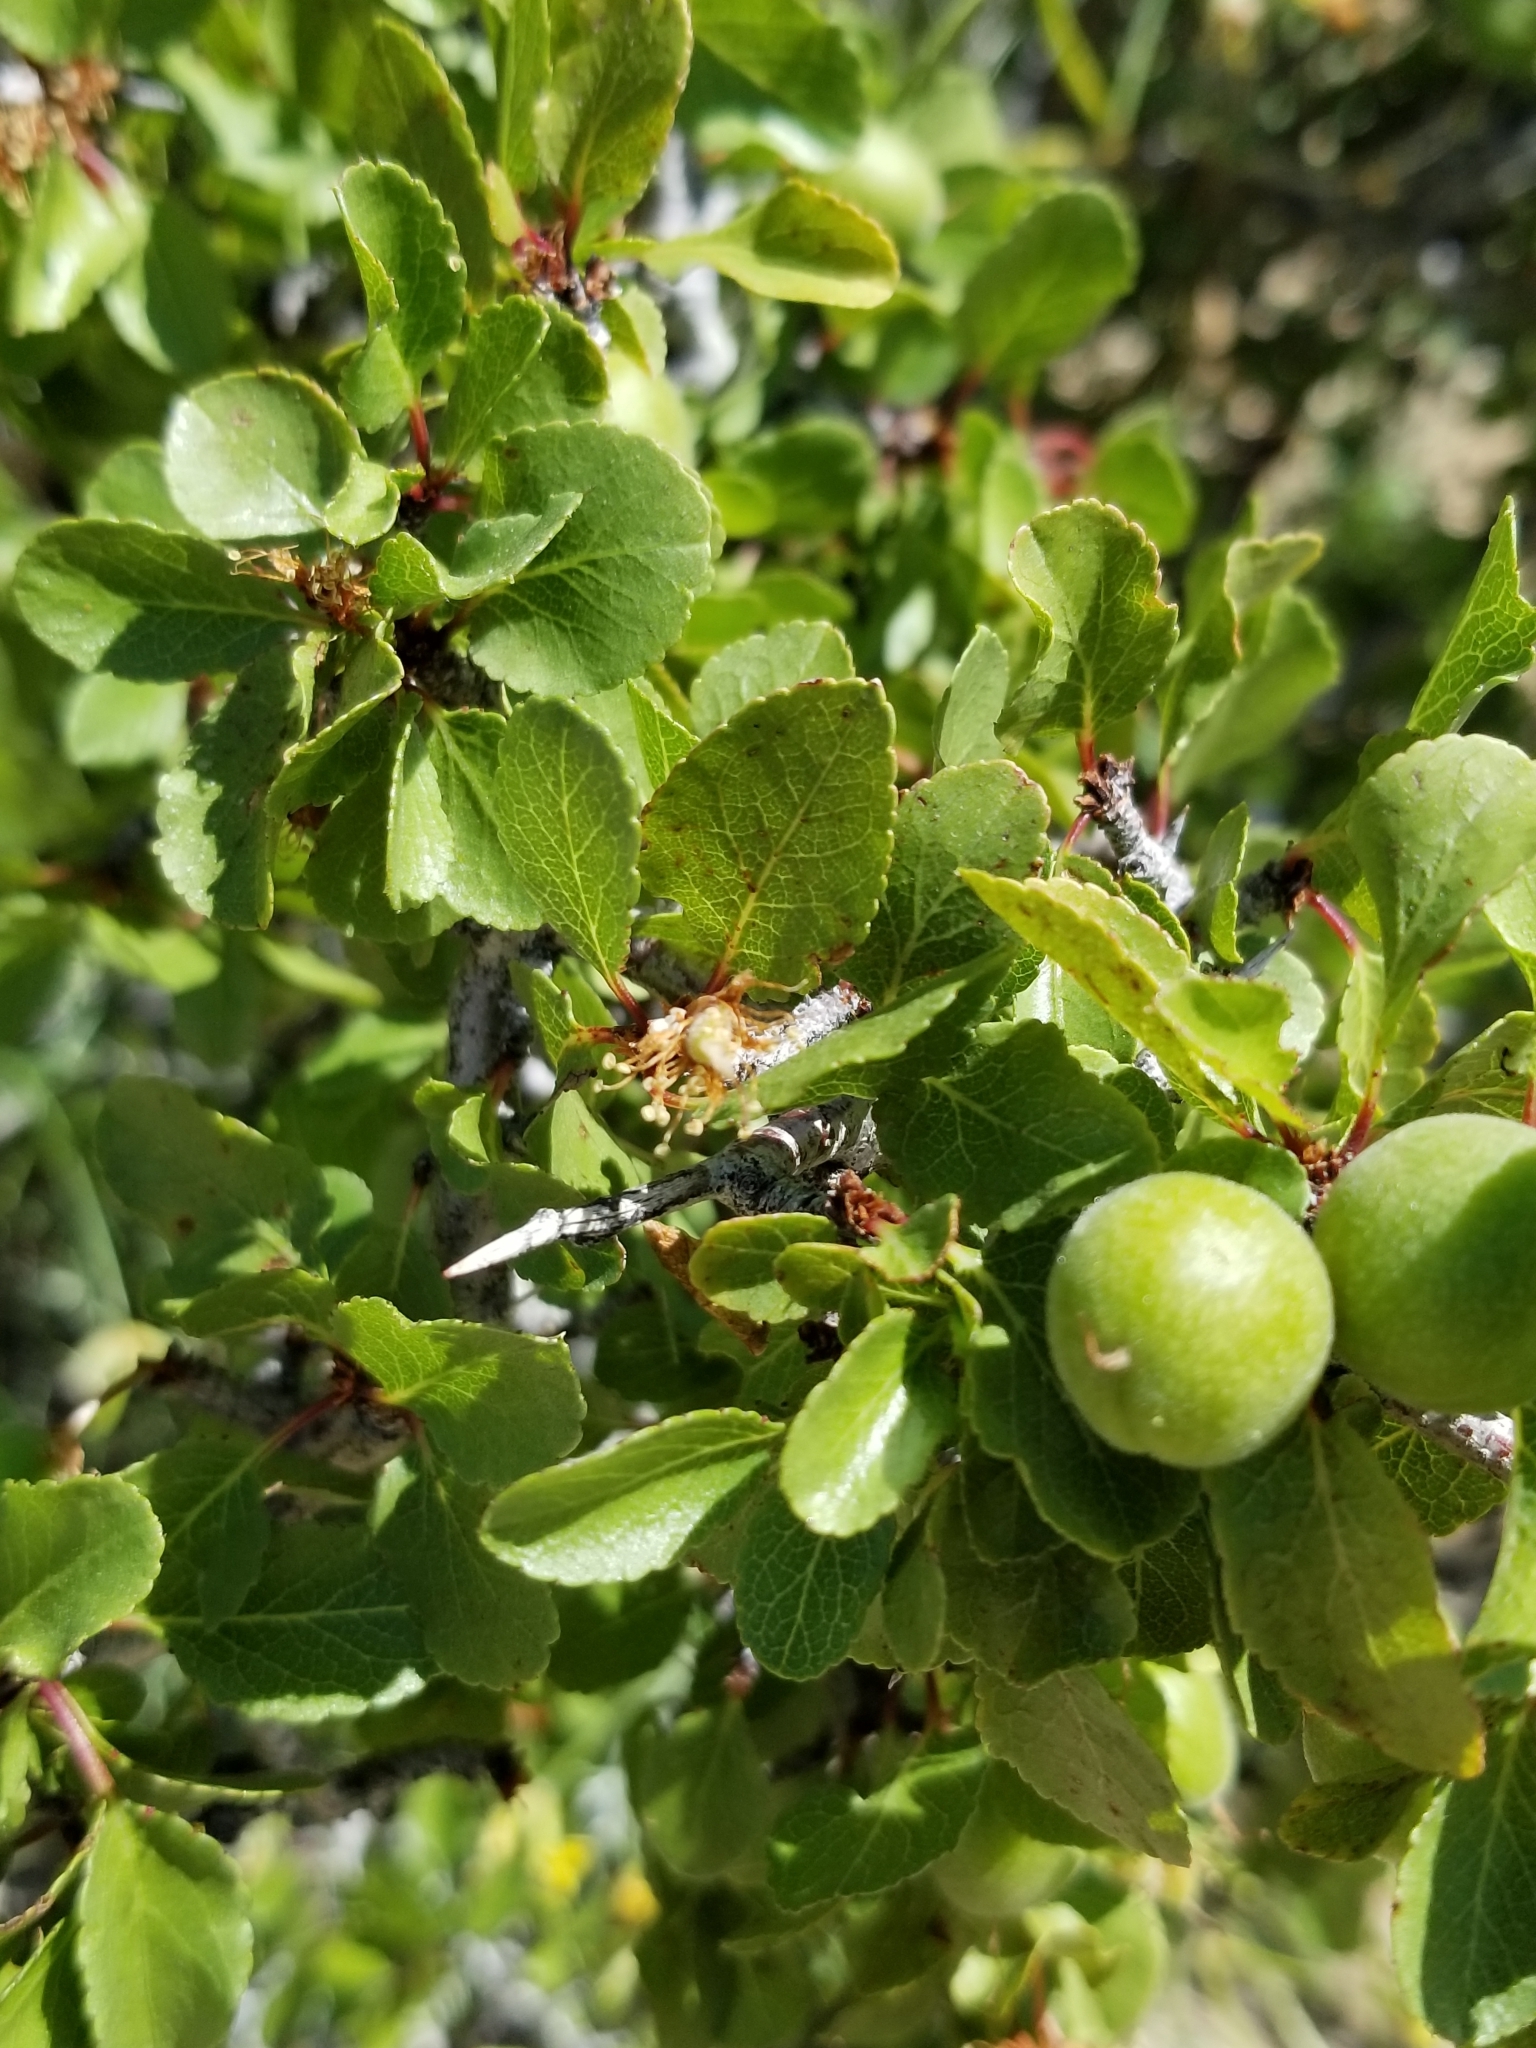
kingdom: Plantae
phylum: Tracheophyta
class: Magnoliopsida
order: Rosales
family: Rosaceae
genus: Prunus
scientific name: Prunus fremontii
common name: Desert apricot
